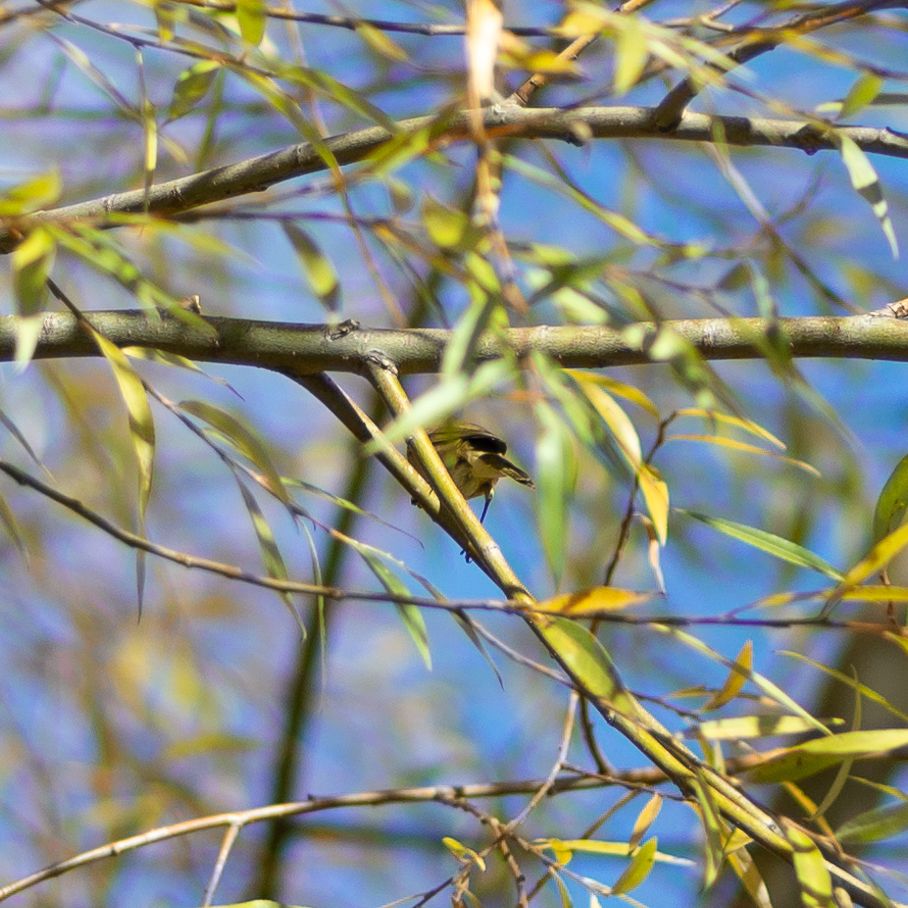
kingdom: Animalia
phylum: Chordata
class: Aves
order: Passeriformes
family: Phylloscopidae
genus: Phylloscopus
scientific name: Phylloscopus collybita
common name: Common chiffchaff
